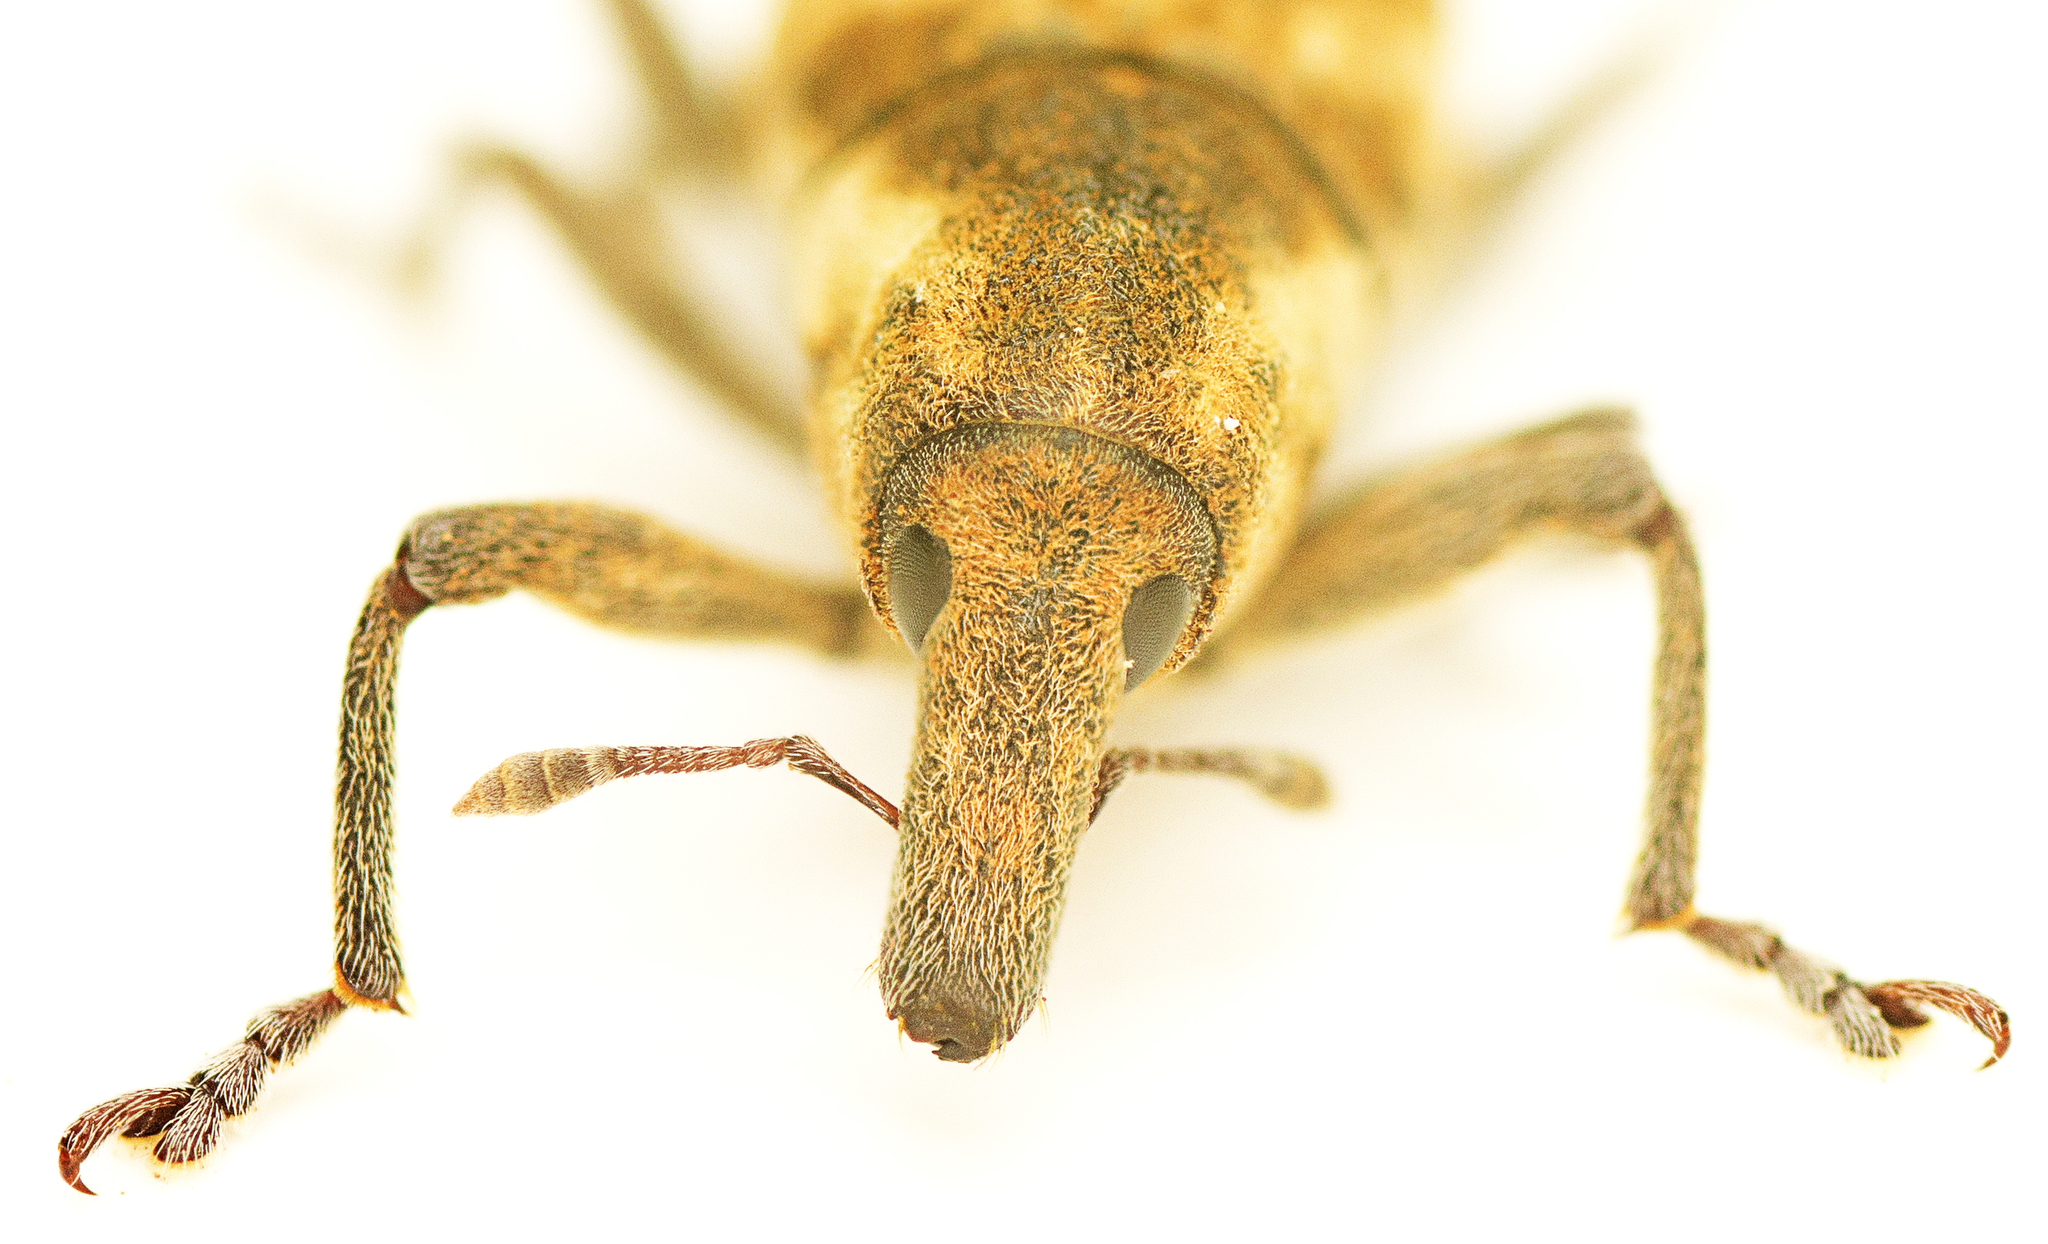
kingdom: Animalia
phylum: Arthropoda
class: Insecta
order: Coleoptera
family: Curculionidae
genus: Gasteroclisus
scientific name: Gasteroclisus
